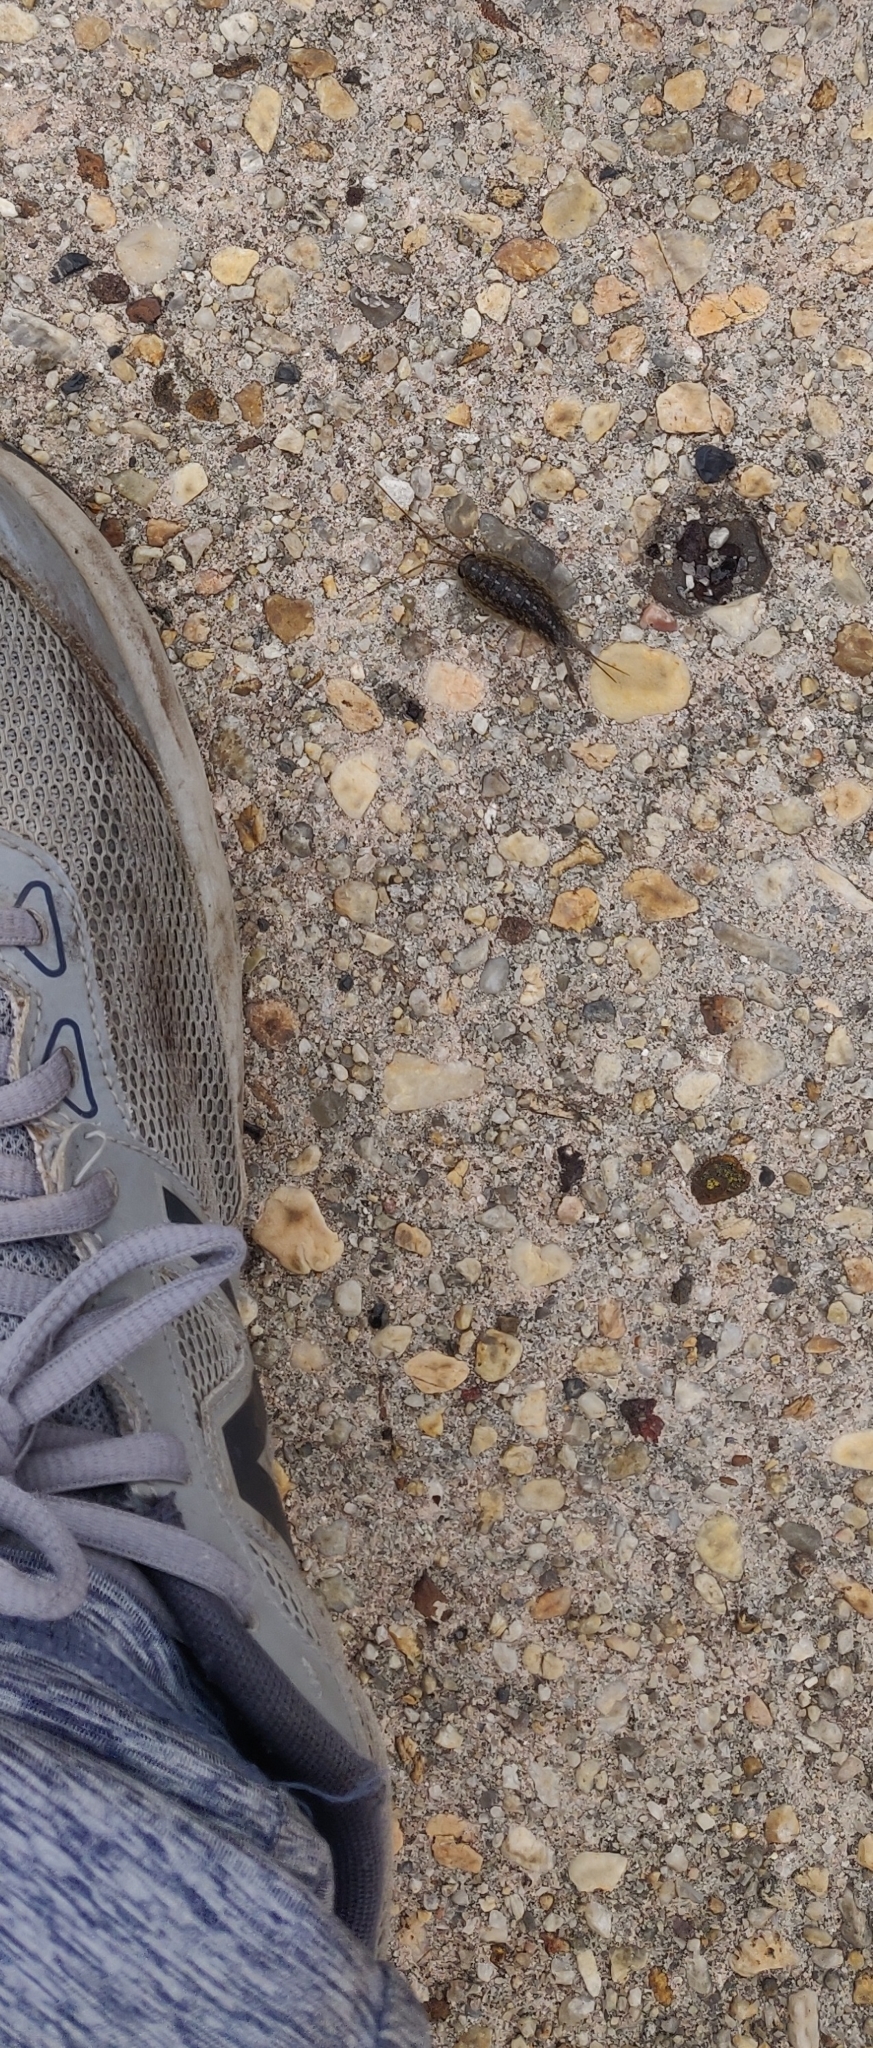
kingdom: Animalia
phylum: Arthropoda
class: Malacostraca
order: Isopoda
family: Ligiidae
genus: Ligia
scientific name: Ligia exotica
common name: Wharf roach
